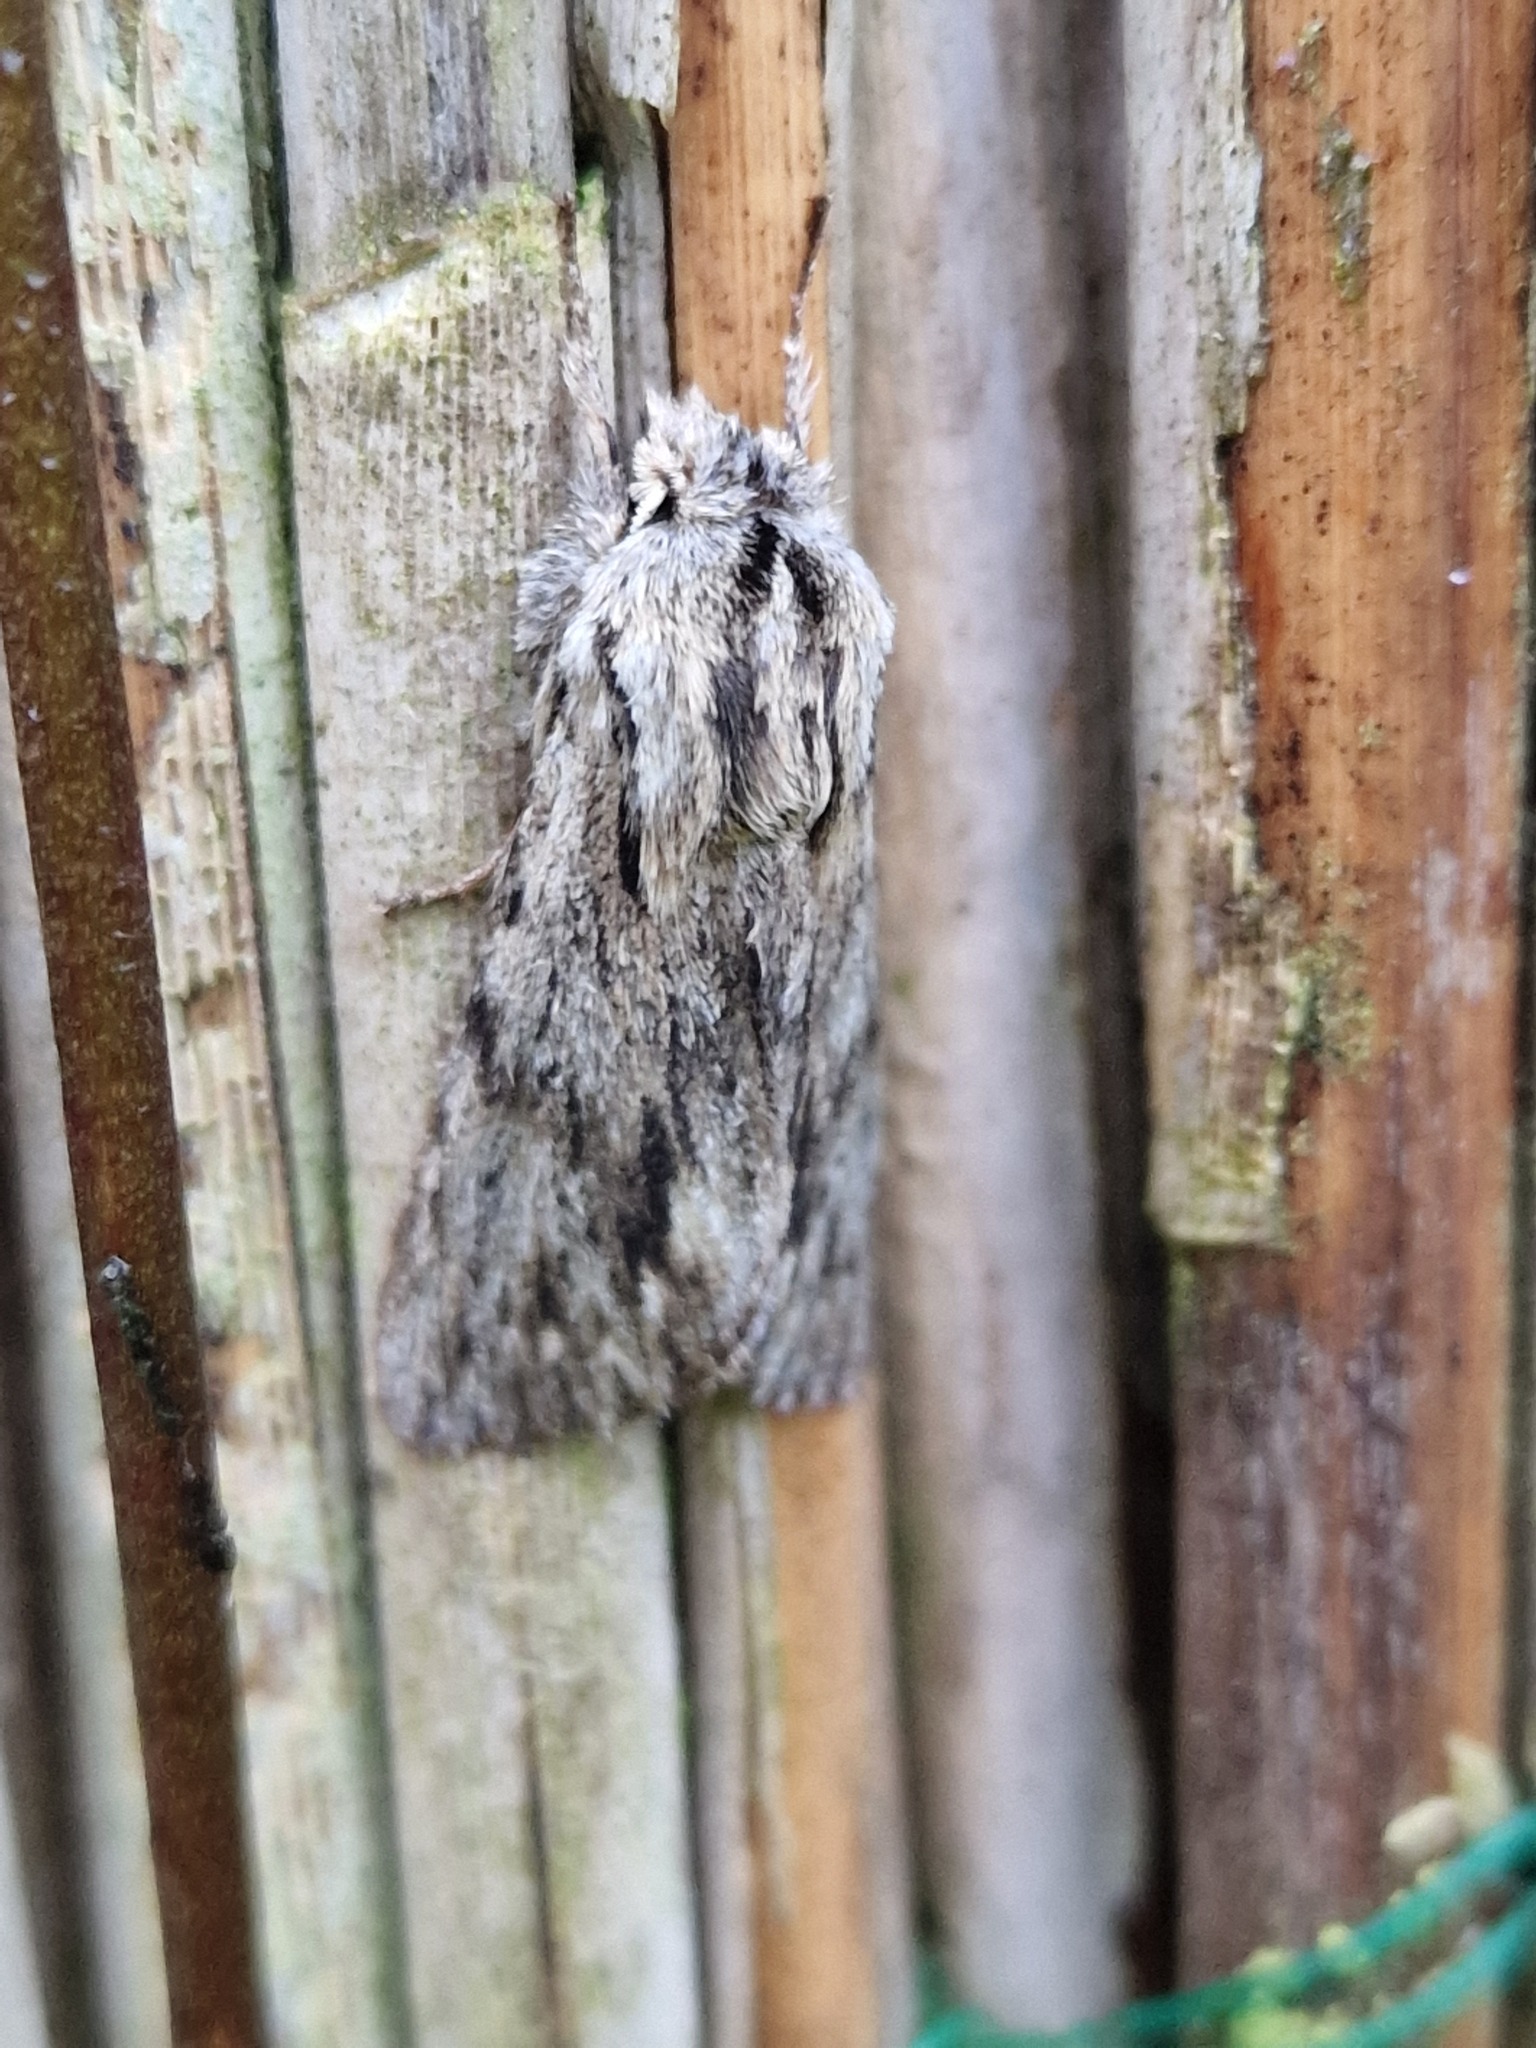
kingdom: Animalia
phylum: Arthropoda
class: Insecta
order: Lepidoptera
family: Noctuidae
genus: Asteroscopus
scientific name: Asteroscopus sphinx
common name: The sprawler
